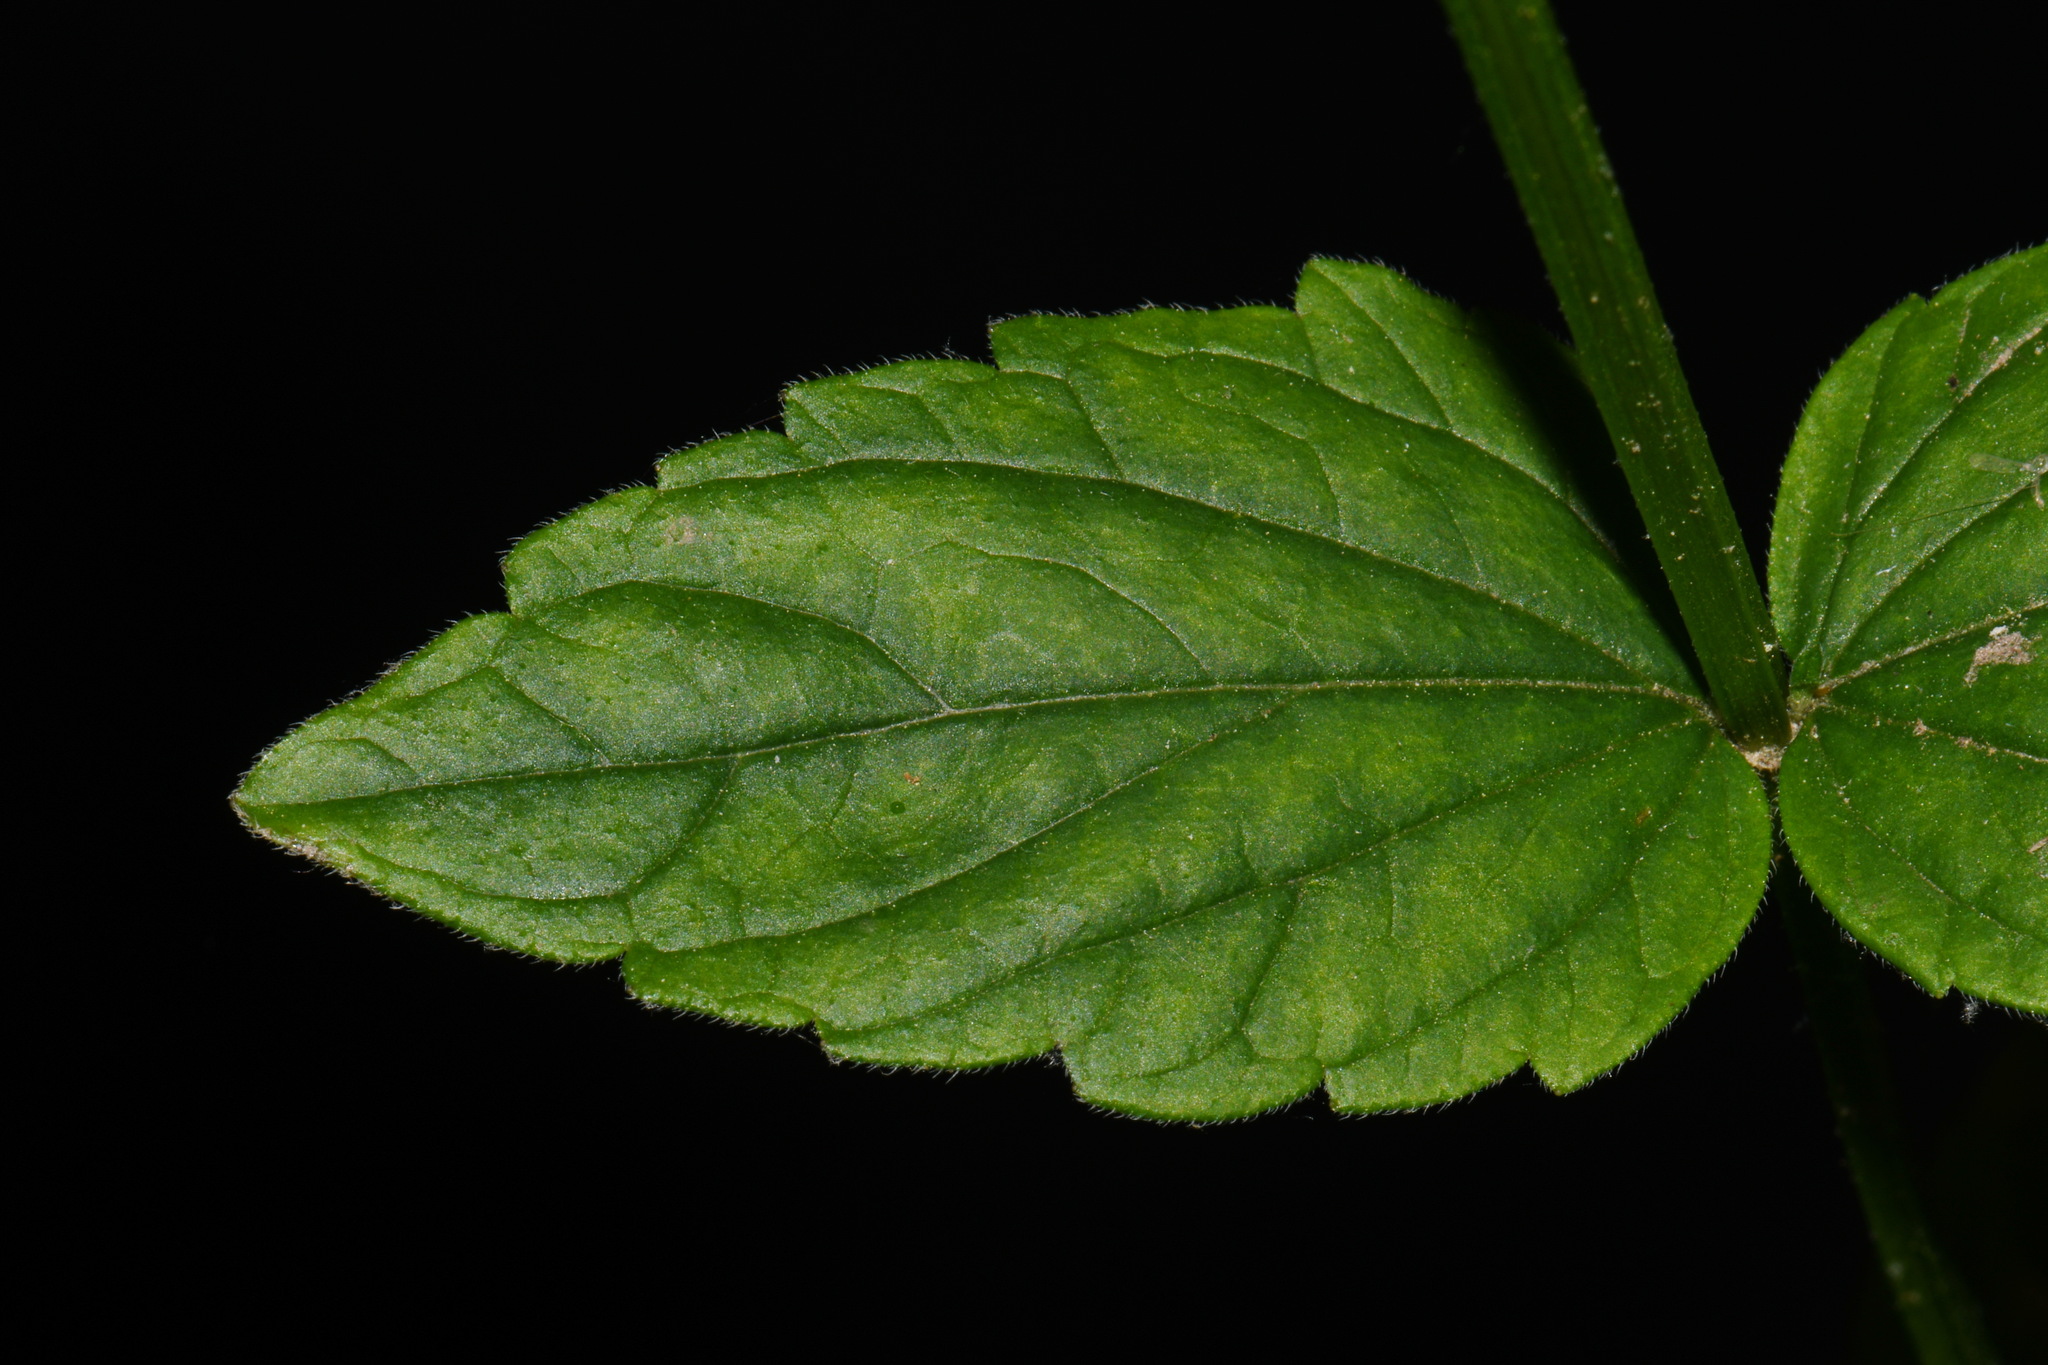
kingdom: Plantae
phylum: Tracheophyta
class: Magnoliopsida
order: Lamiales
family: Lamiaceae
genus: Scutellaria
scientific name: Scutellaria nervosa
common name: Bottomland skullcap
